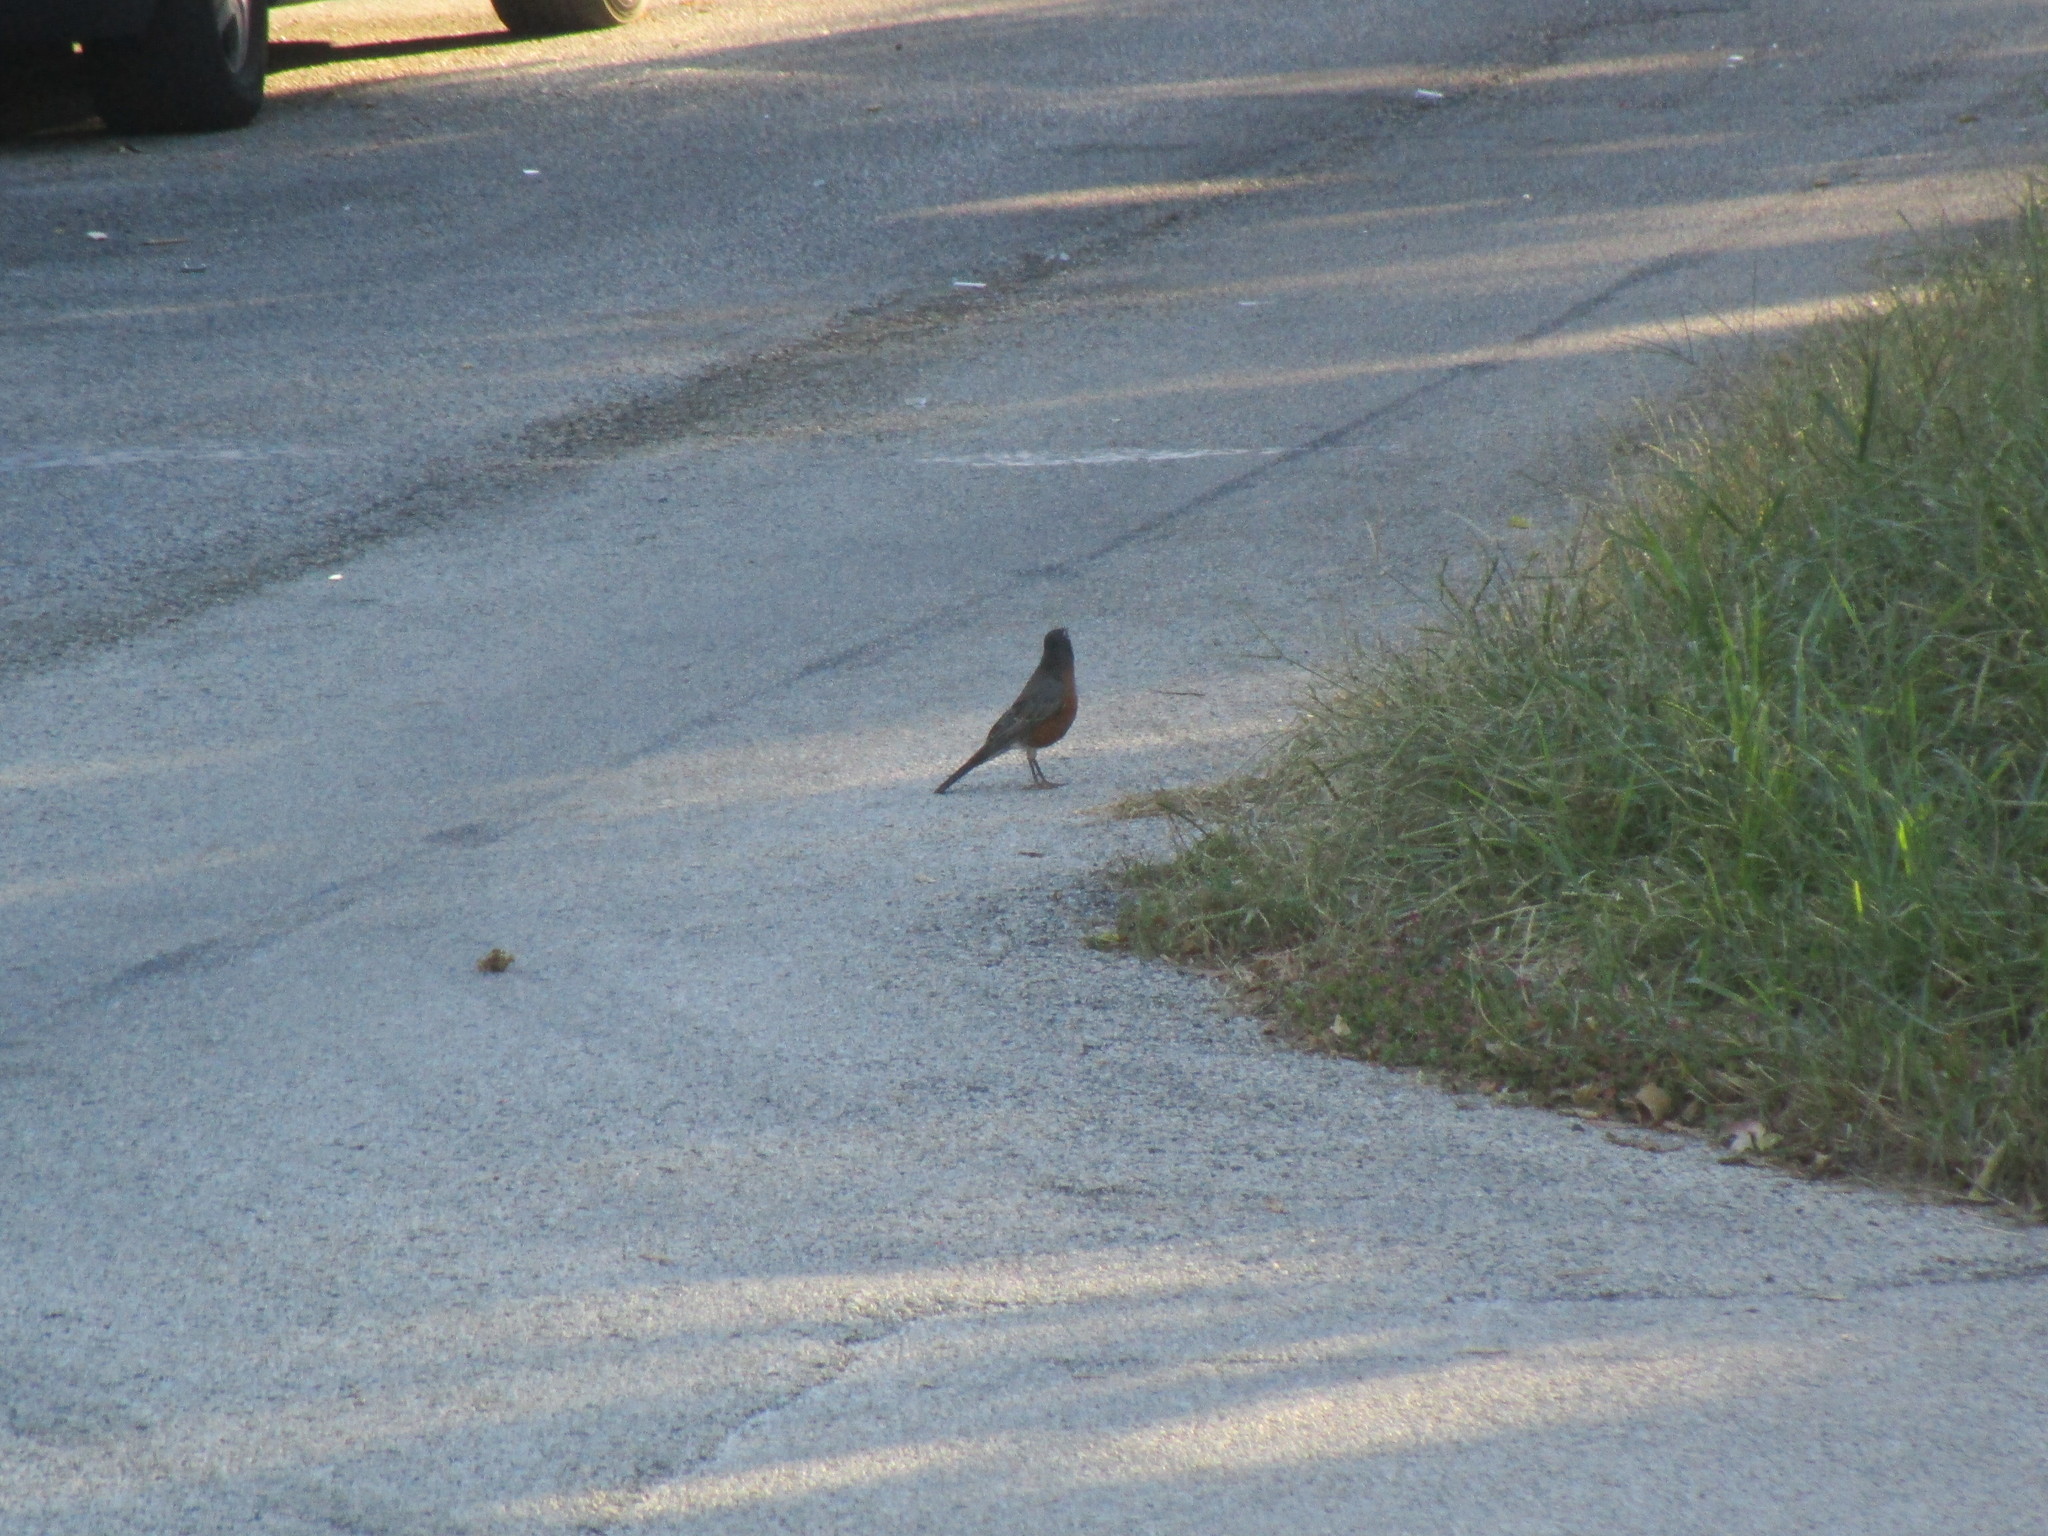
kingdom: Animalia
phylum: Chordata
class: Aves
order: Passeriformes
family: Turdidae
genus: Turdus
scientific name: Turdus migratorius
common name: American robin
